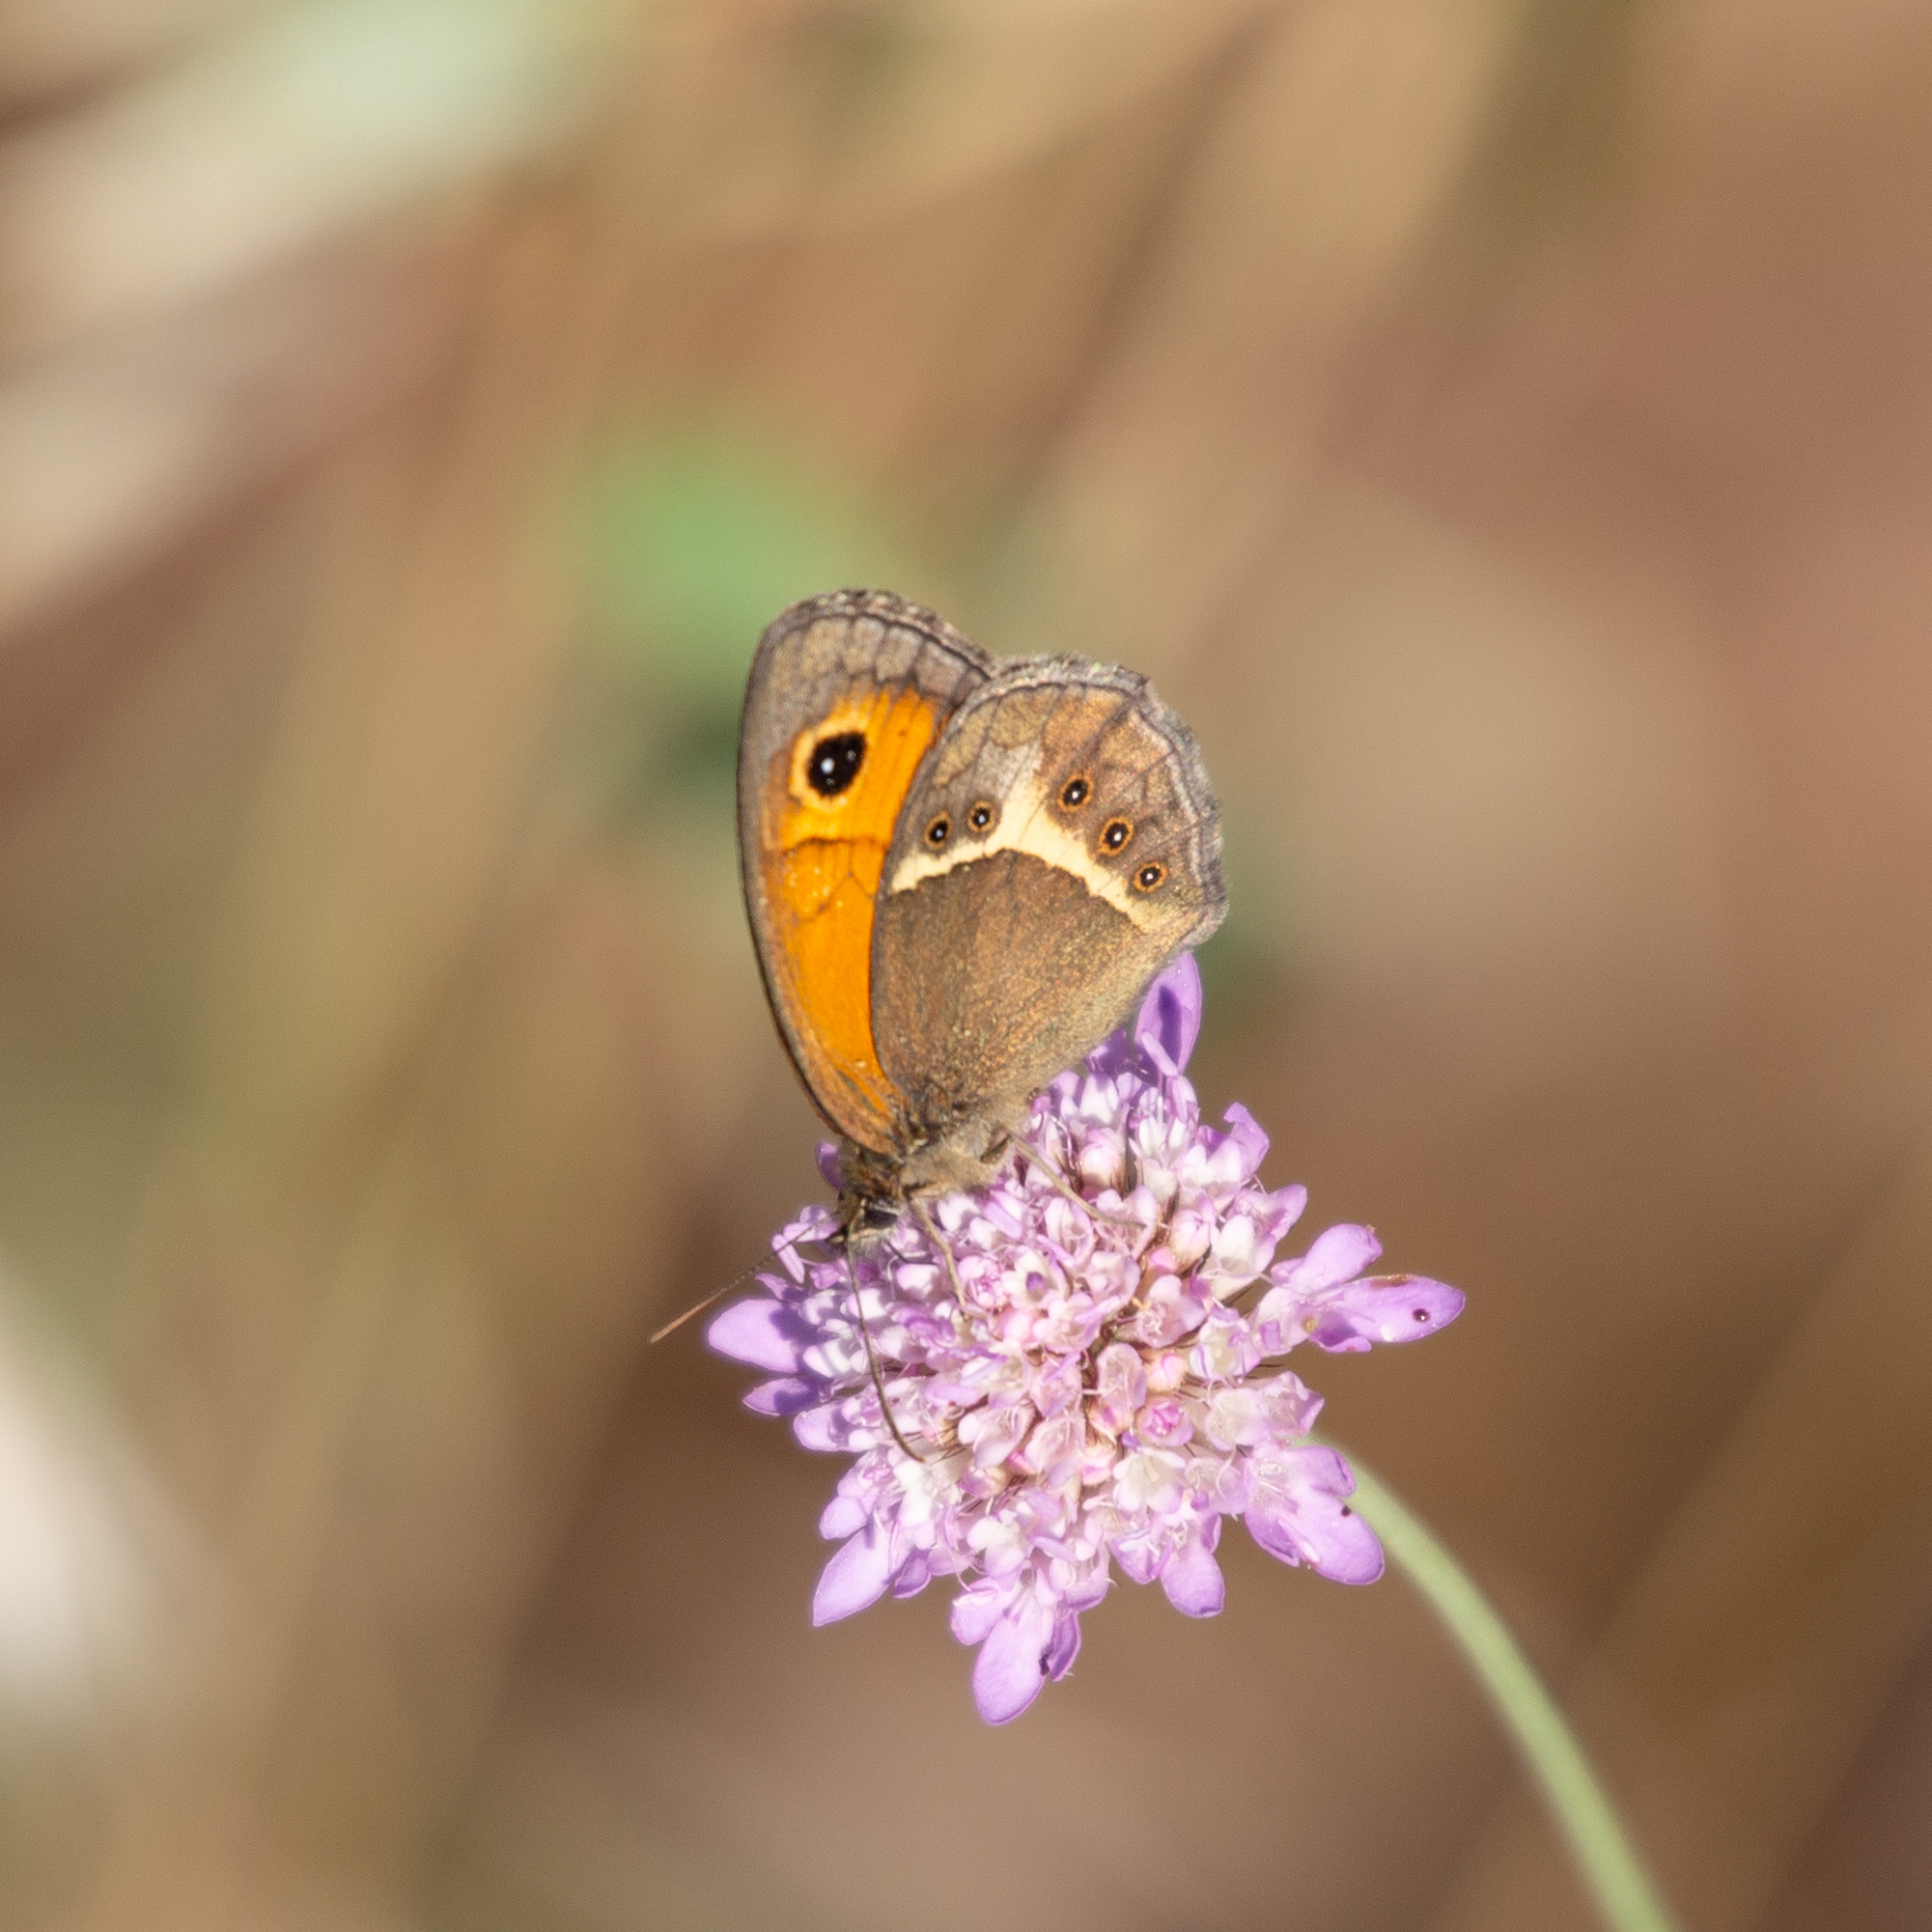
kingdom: Animalia
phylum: Arthropoda
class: Insecta
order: Lepidoptera
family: Nymphalidae
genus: Pyronia
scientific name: Pyronia bathseba
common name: Spanish gatekeeper
